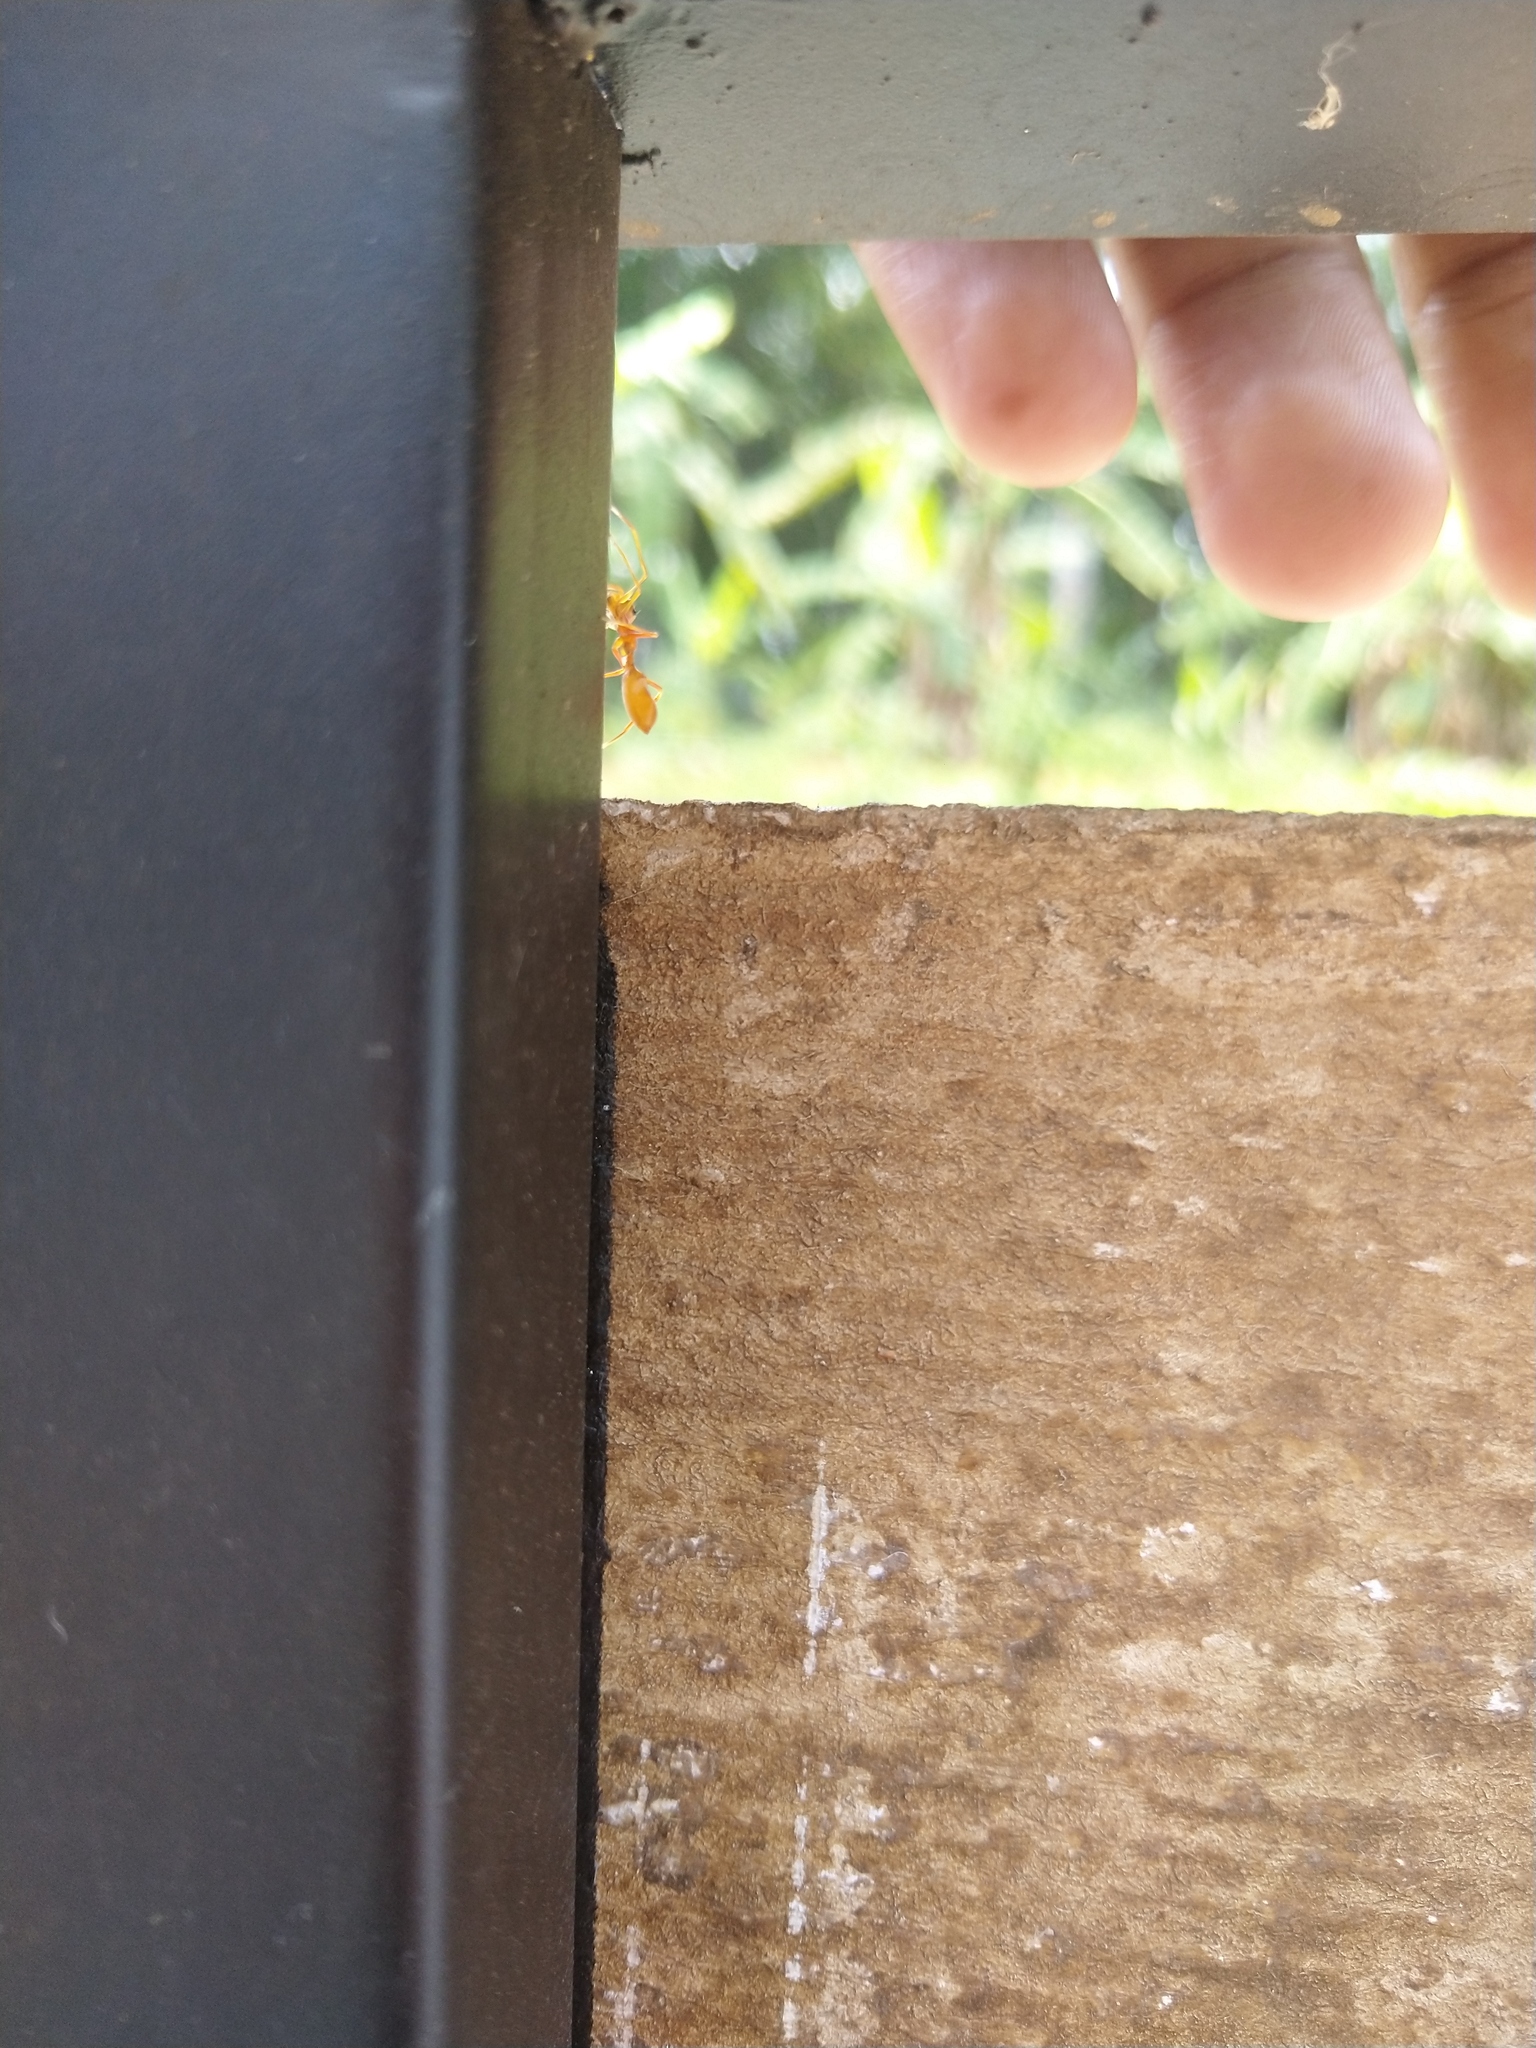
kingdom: Animalia
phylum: Arthropoda
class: Insecta
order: Hymenoptera
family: Formicidae
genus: Oecophylla
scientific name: Oecophylla smaragdina
